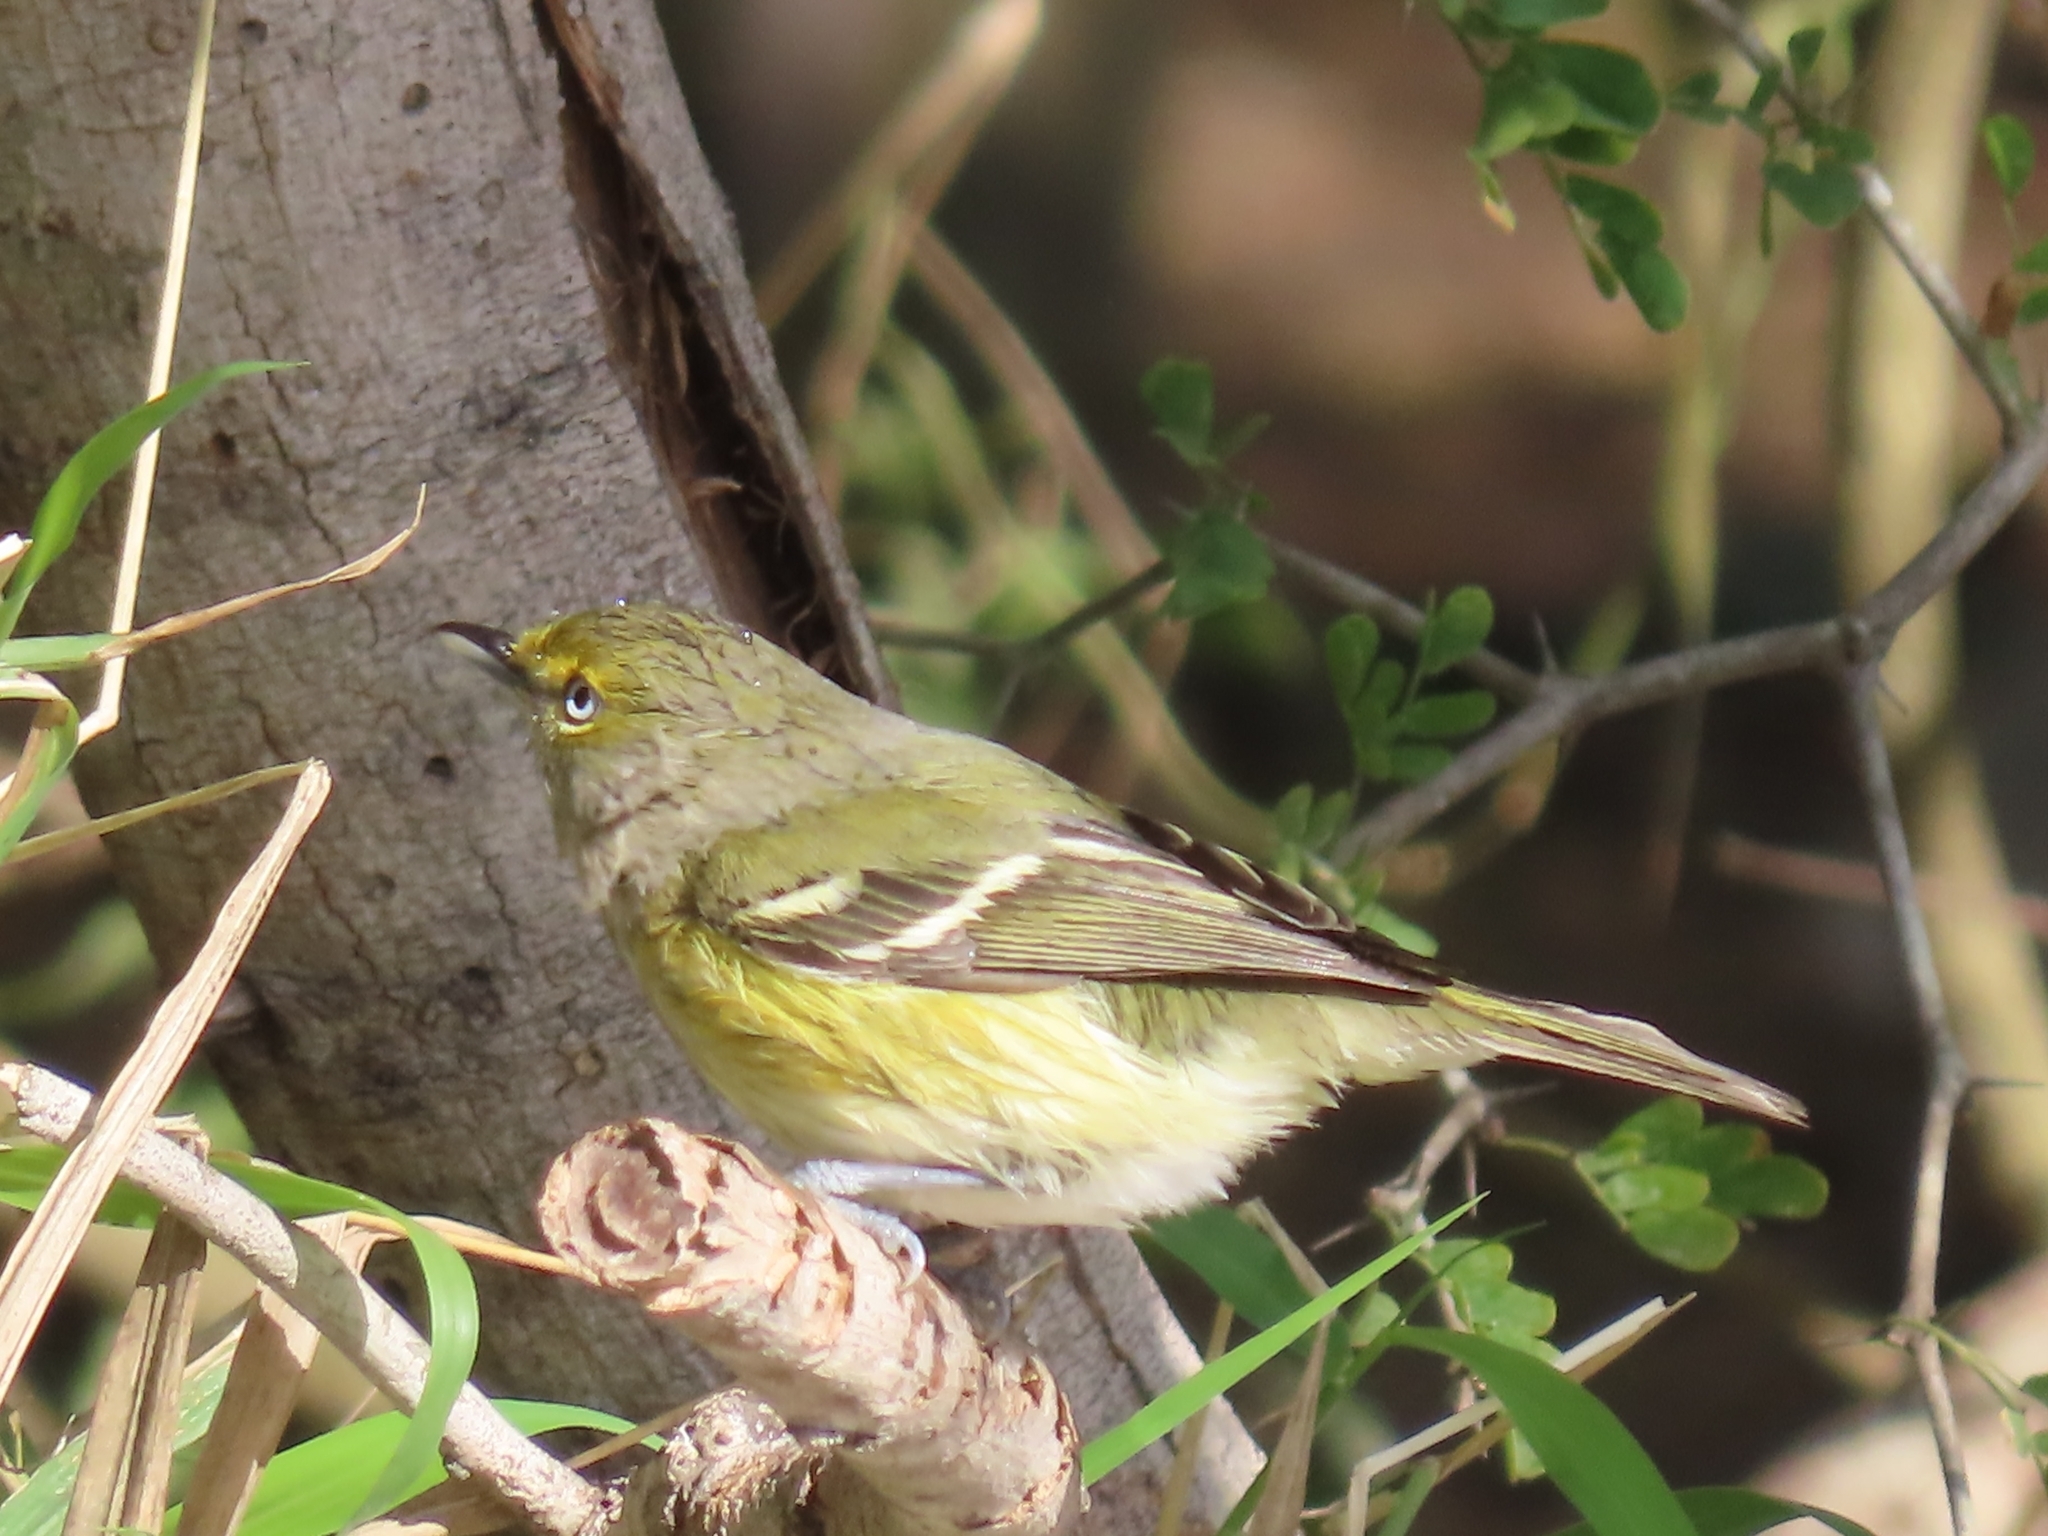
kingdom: Animalia
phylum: Chordata
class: Aves
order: Passeriformes
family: Vireonidae
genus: Vireo
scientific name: Vireo griseus
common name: White-eyed vireo
